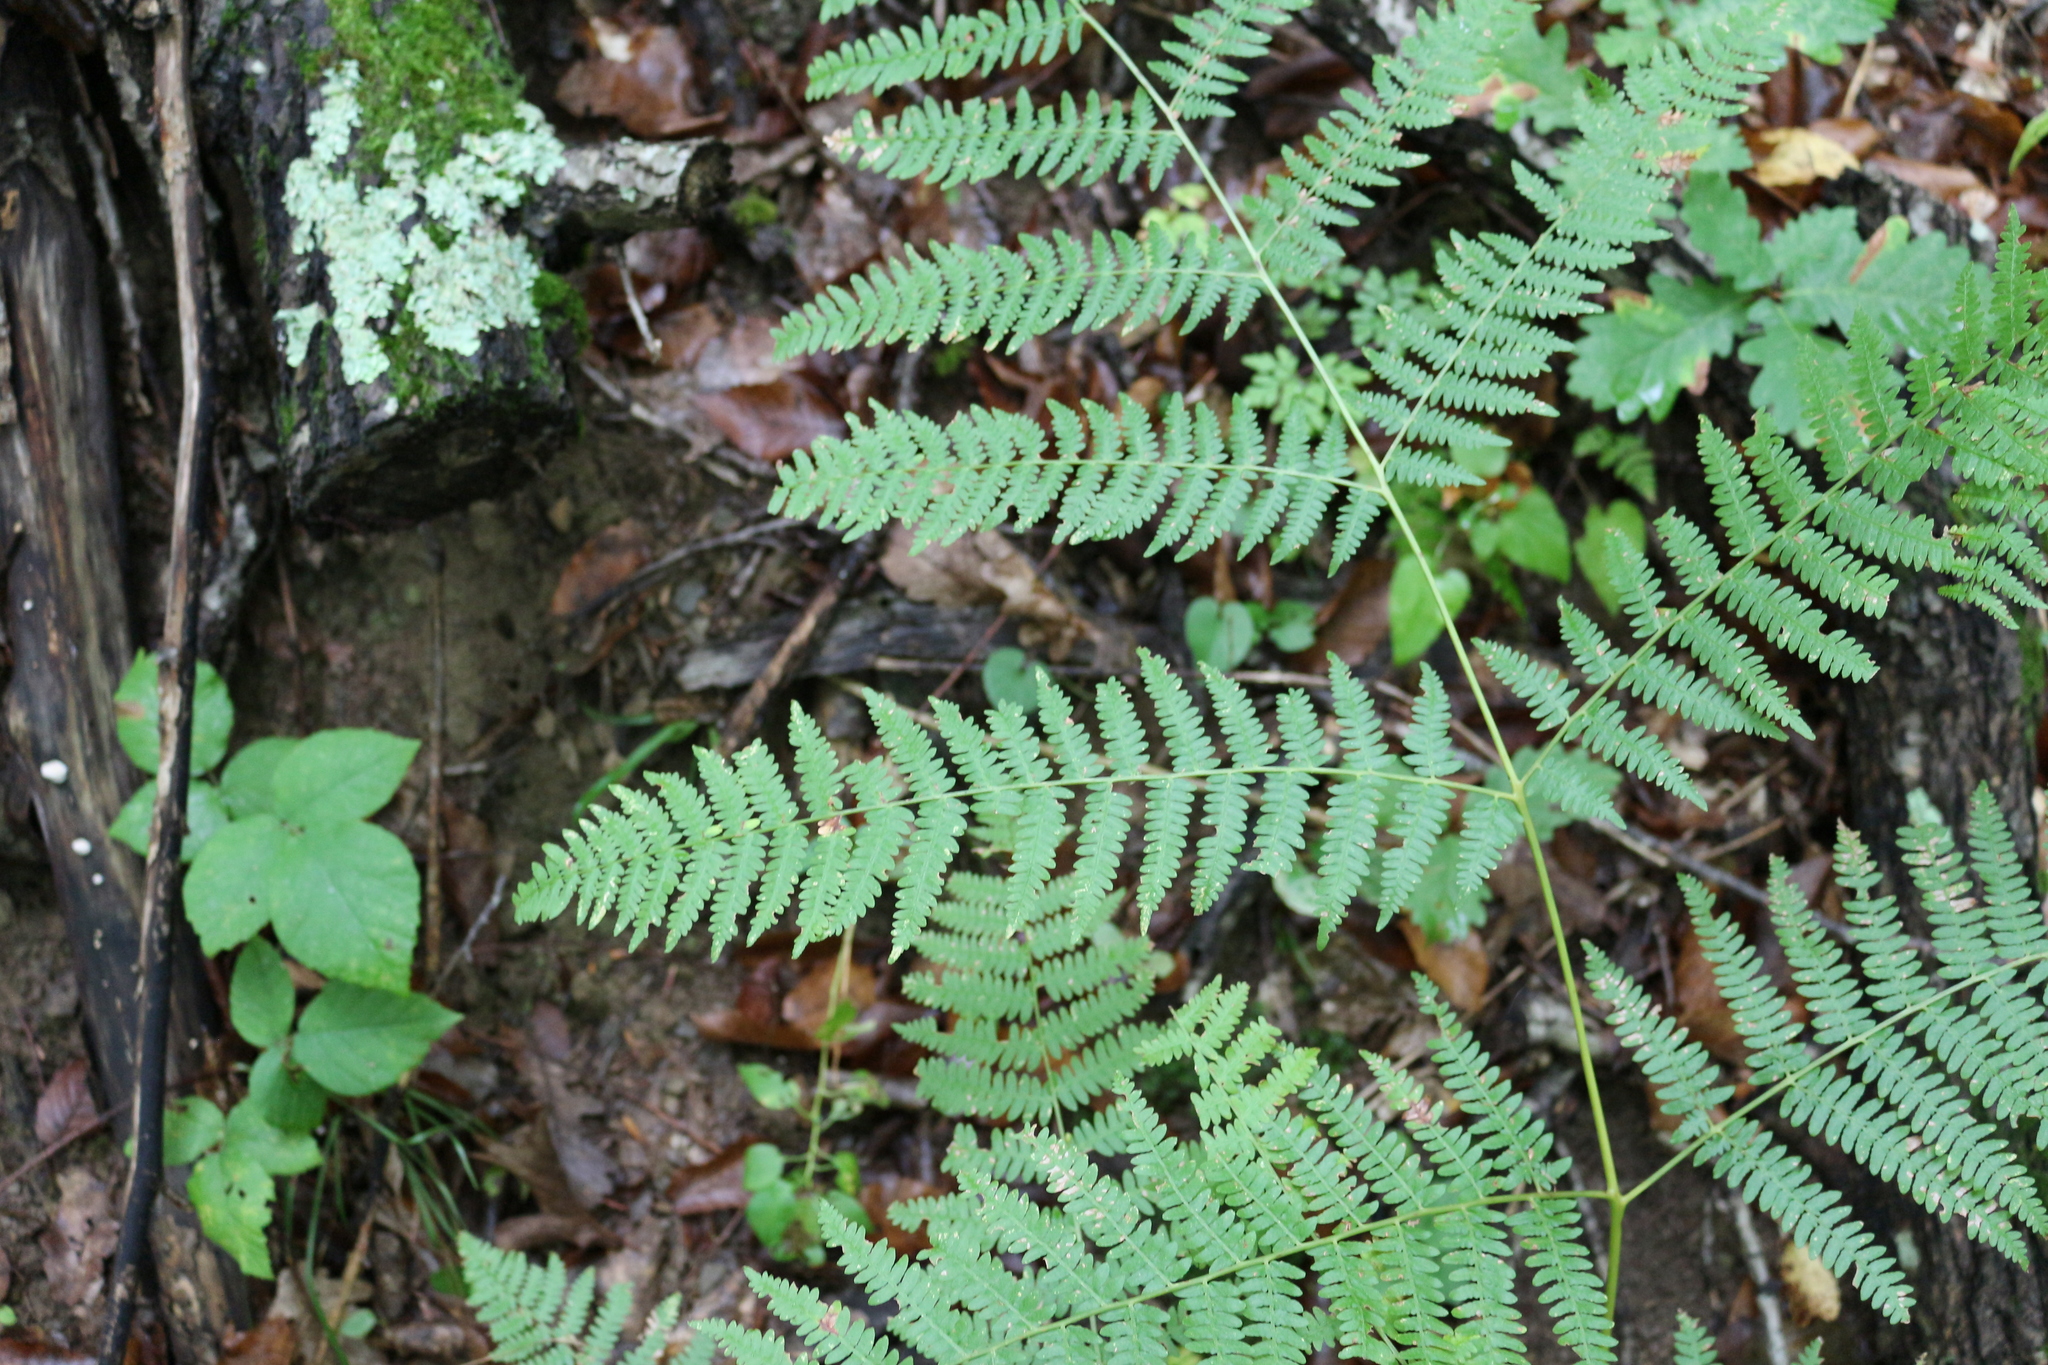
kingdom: Plantae
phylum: Tracheophyta
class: Polypodiopsida
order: Polypodiales
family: Dennstaedtiaceae
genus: Pteridium
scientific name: Pteridium tauricum
